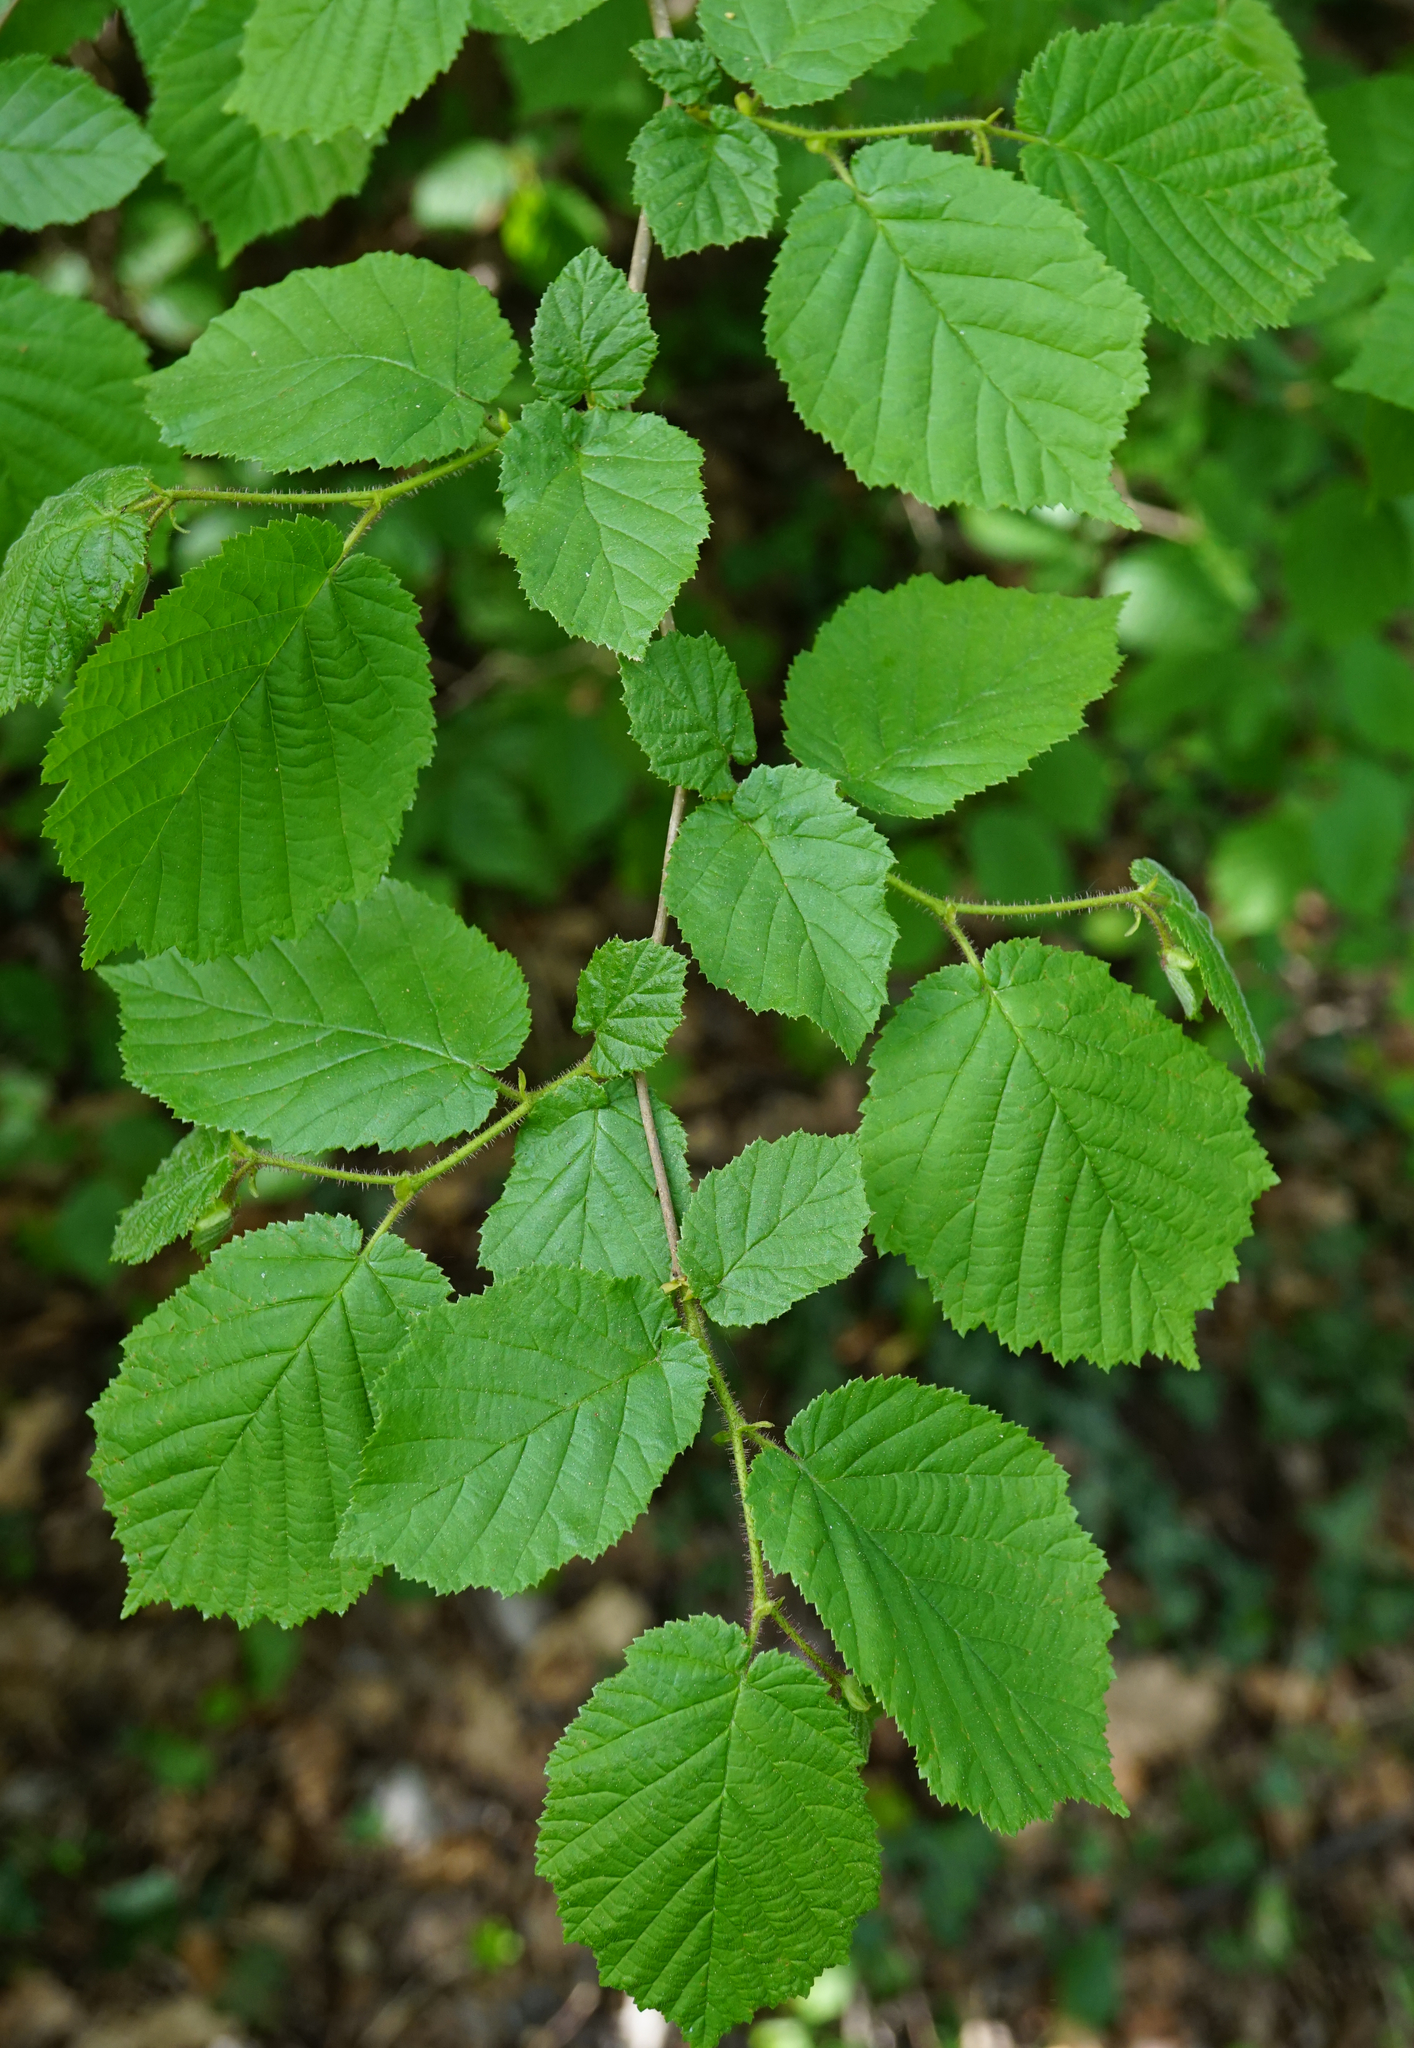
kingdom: Plantae
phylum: Tracheophyta
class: Magnoliopsida
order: Fagales
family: Betulaceae
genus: Corylus
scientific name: Corylus avellana
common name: European hazel
